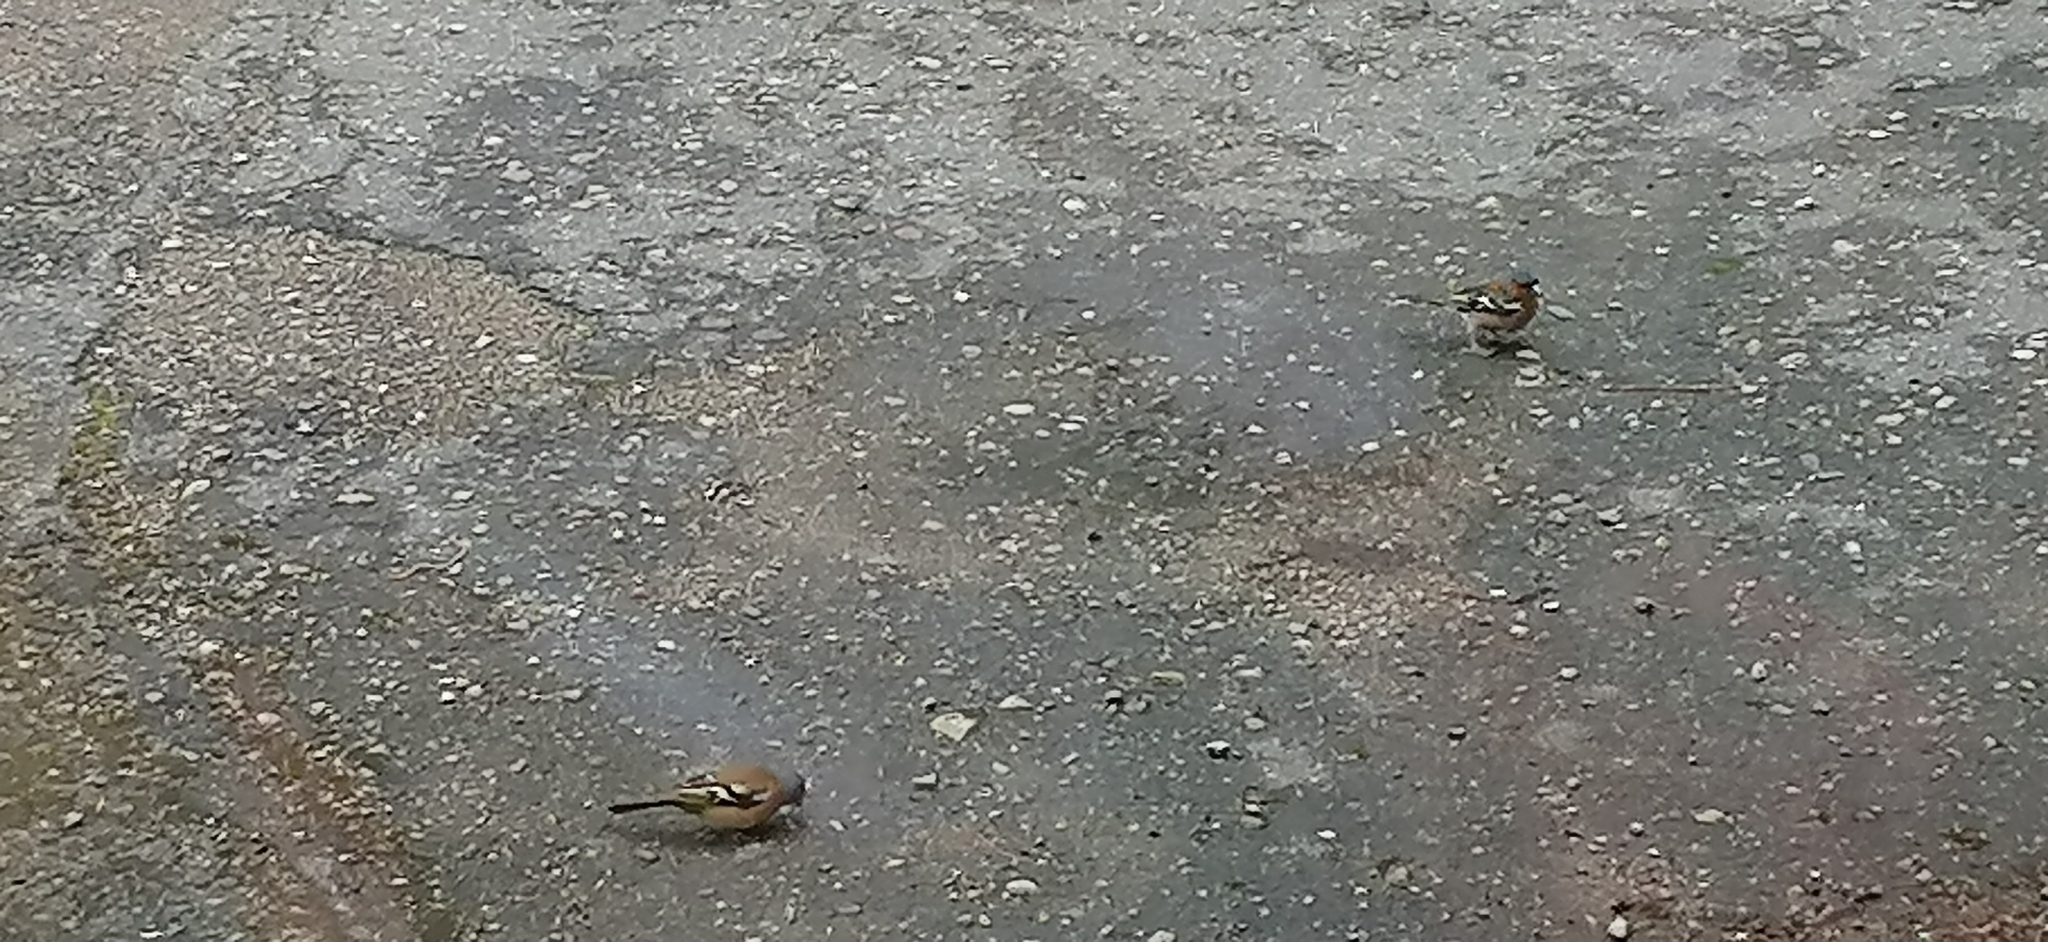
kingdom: Animalia
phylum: Chordata
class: Aves
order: Passeriformes
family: Fringillidae
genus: Fringilla
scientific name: Fringilla coelebs
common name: Common chaffinch
